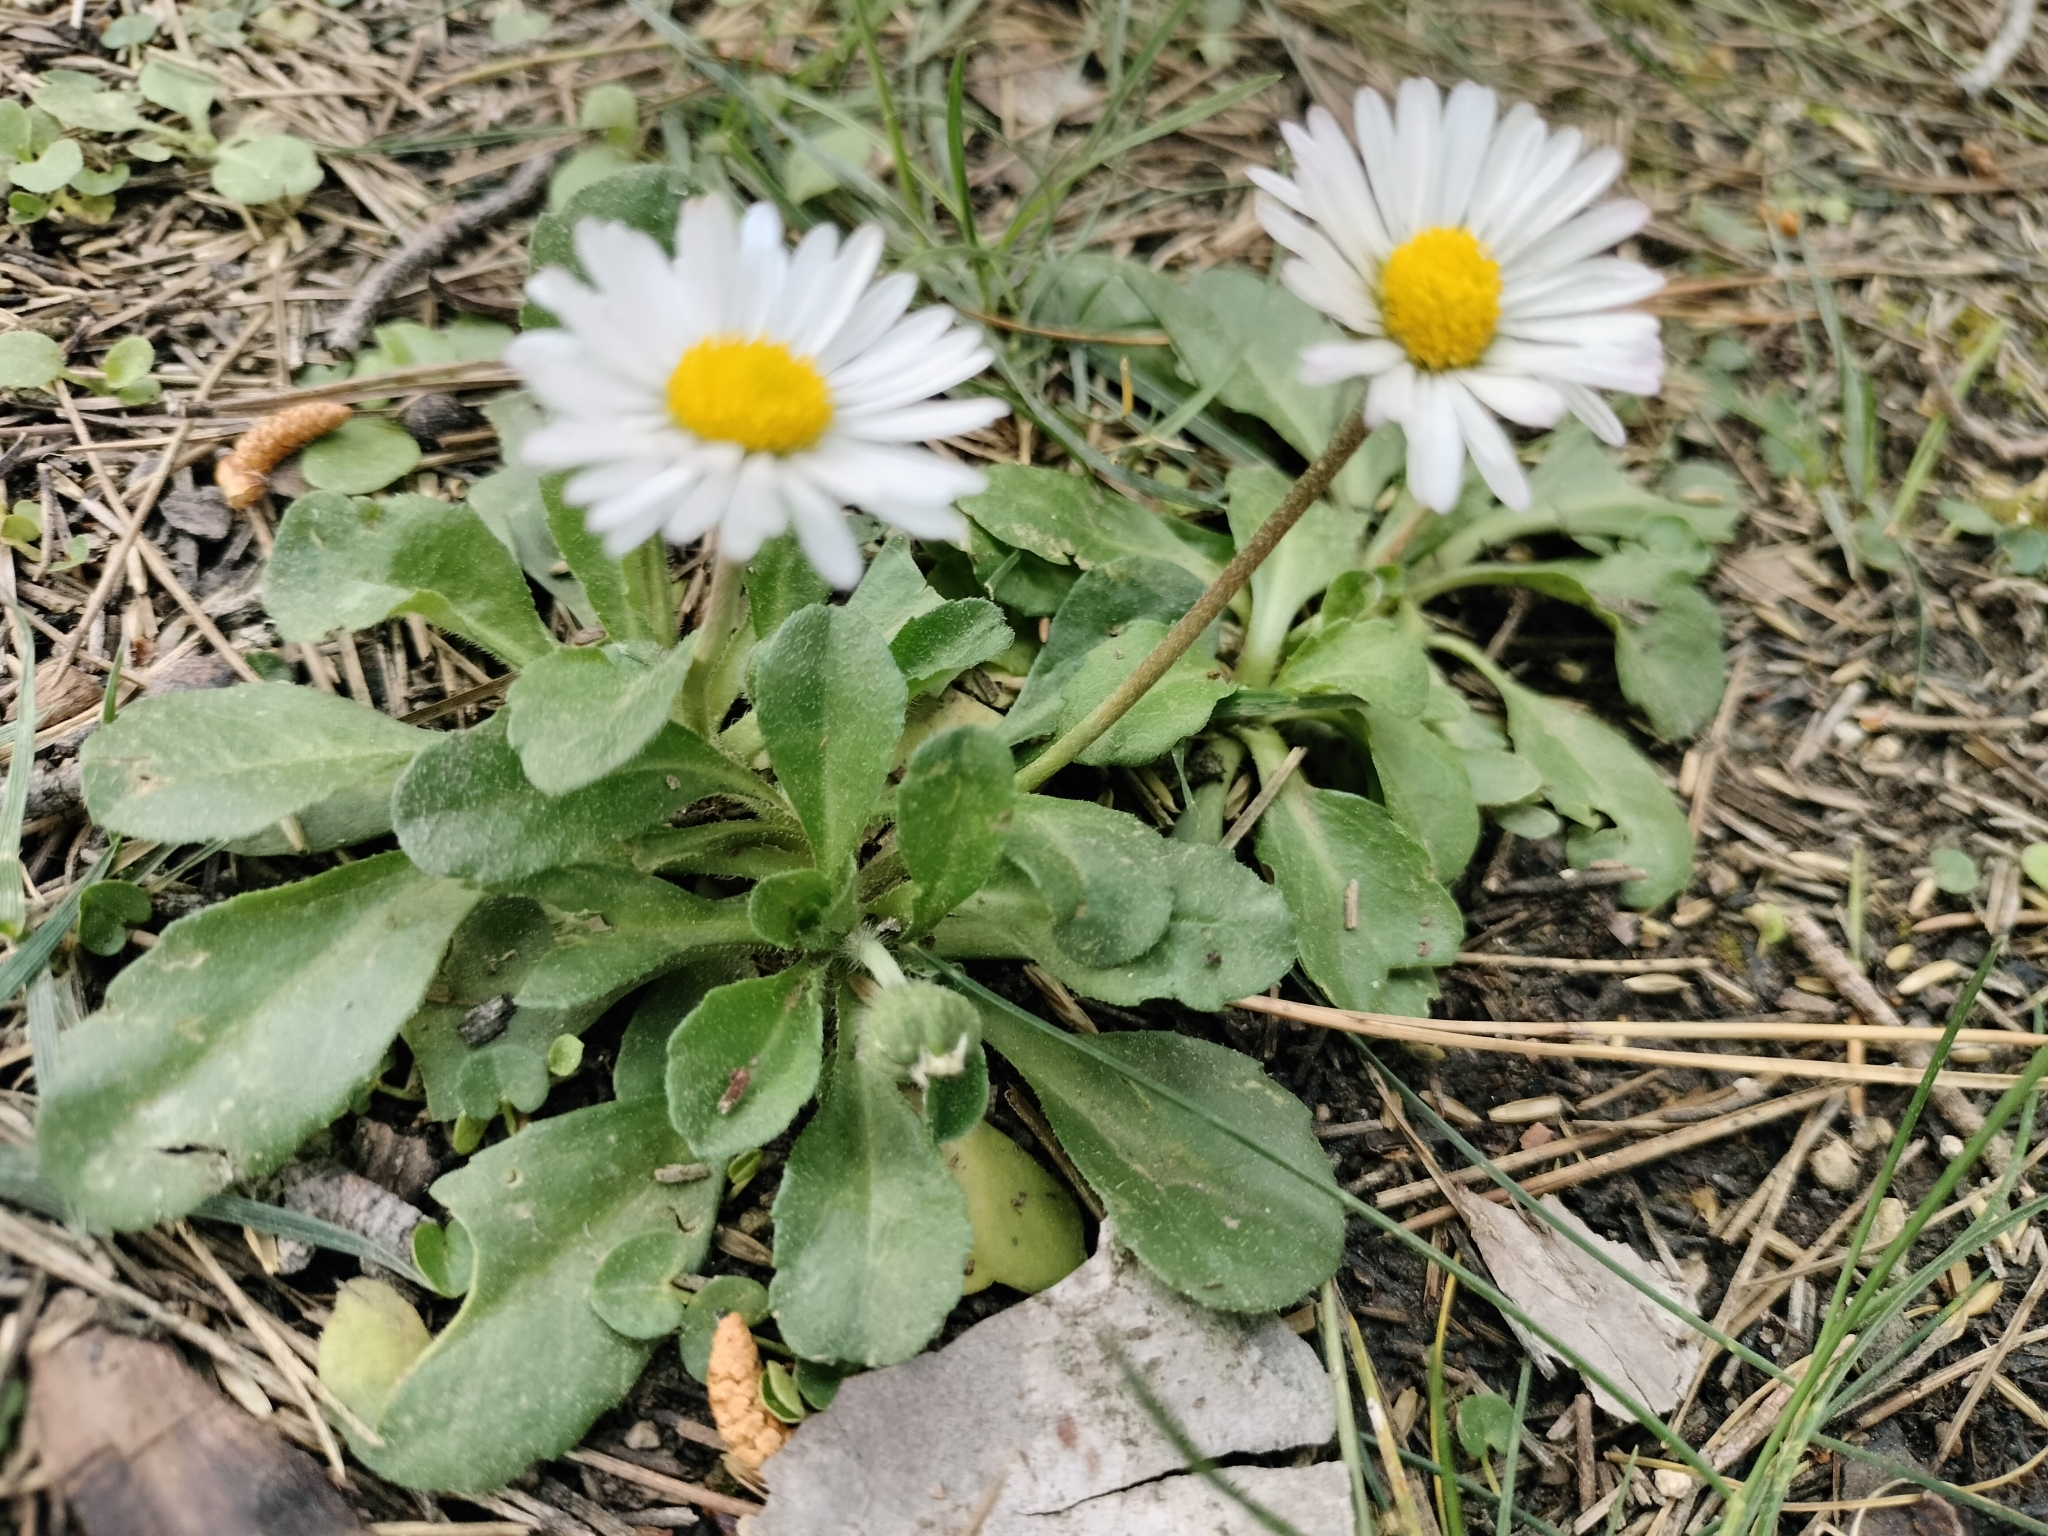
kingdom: Plantae
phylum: Tracheophyta
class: Magnoliopsida
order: Asterales
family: Asteraceae
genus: Bellis
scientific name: Bellis perennis
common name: Lawndaisy
